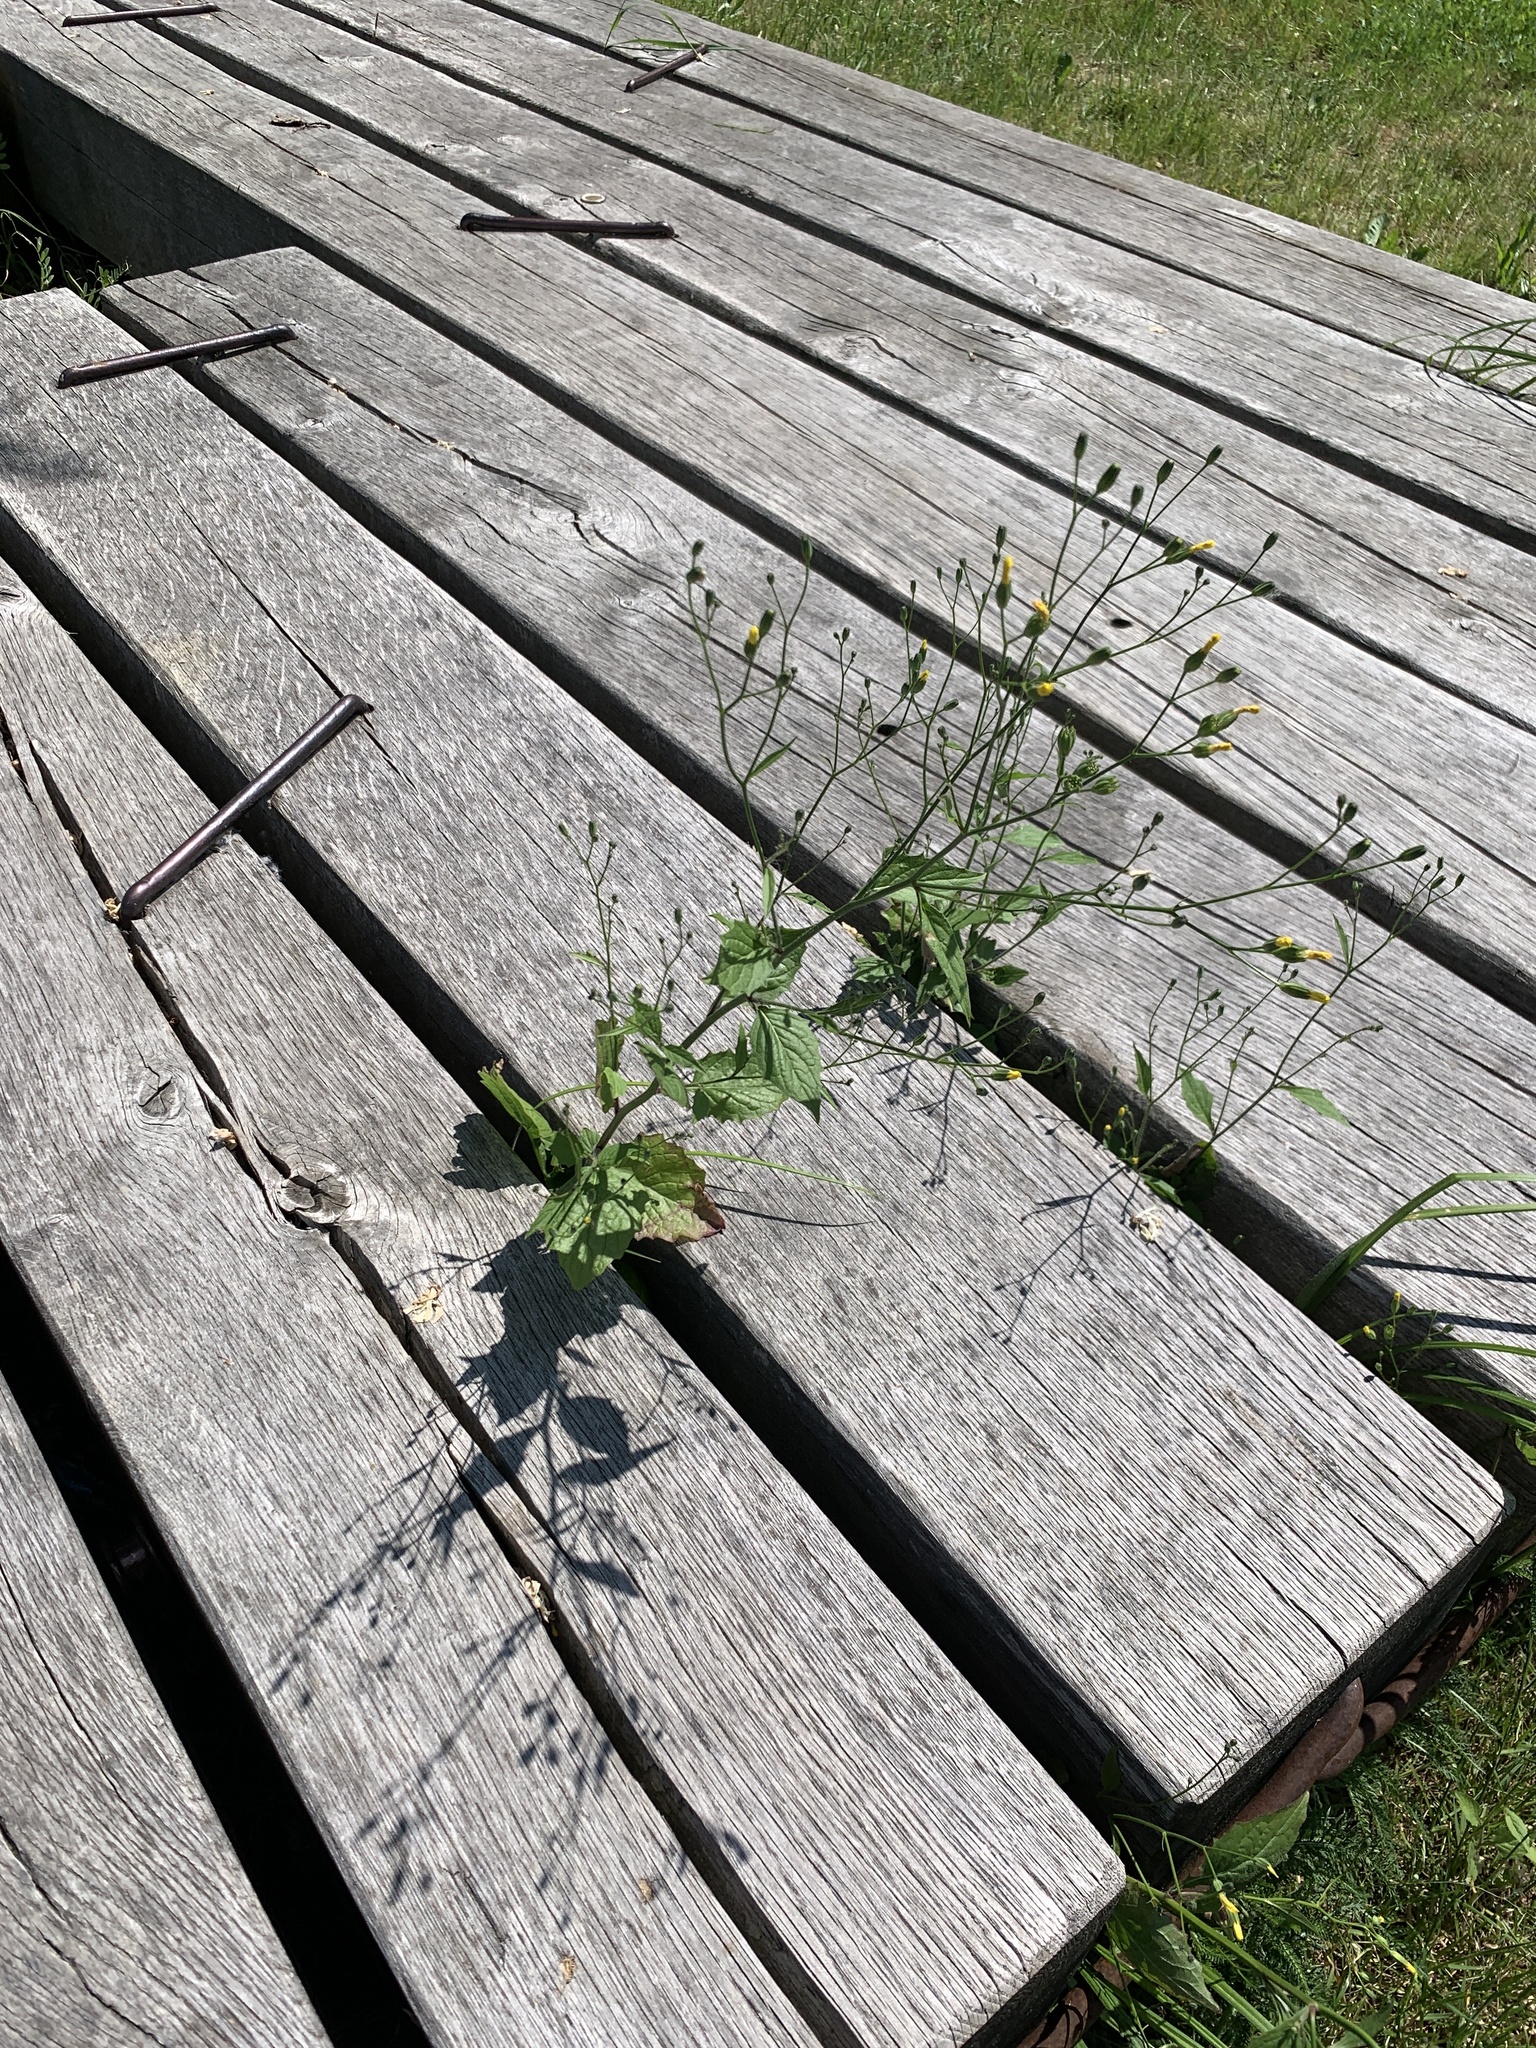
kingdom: Plantae
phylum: Tracheophyta
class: Magnoliopsida
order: Asterales
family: Asteraceae
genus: Lapsana
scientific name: Lapsana communis
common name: Nipplewort
